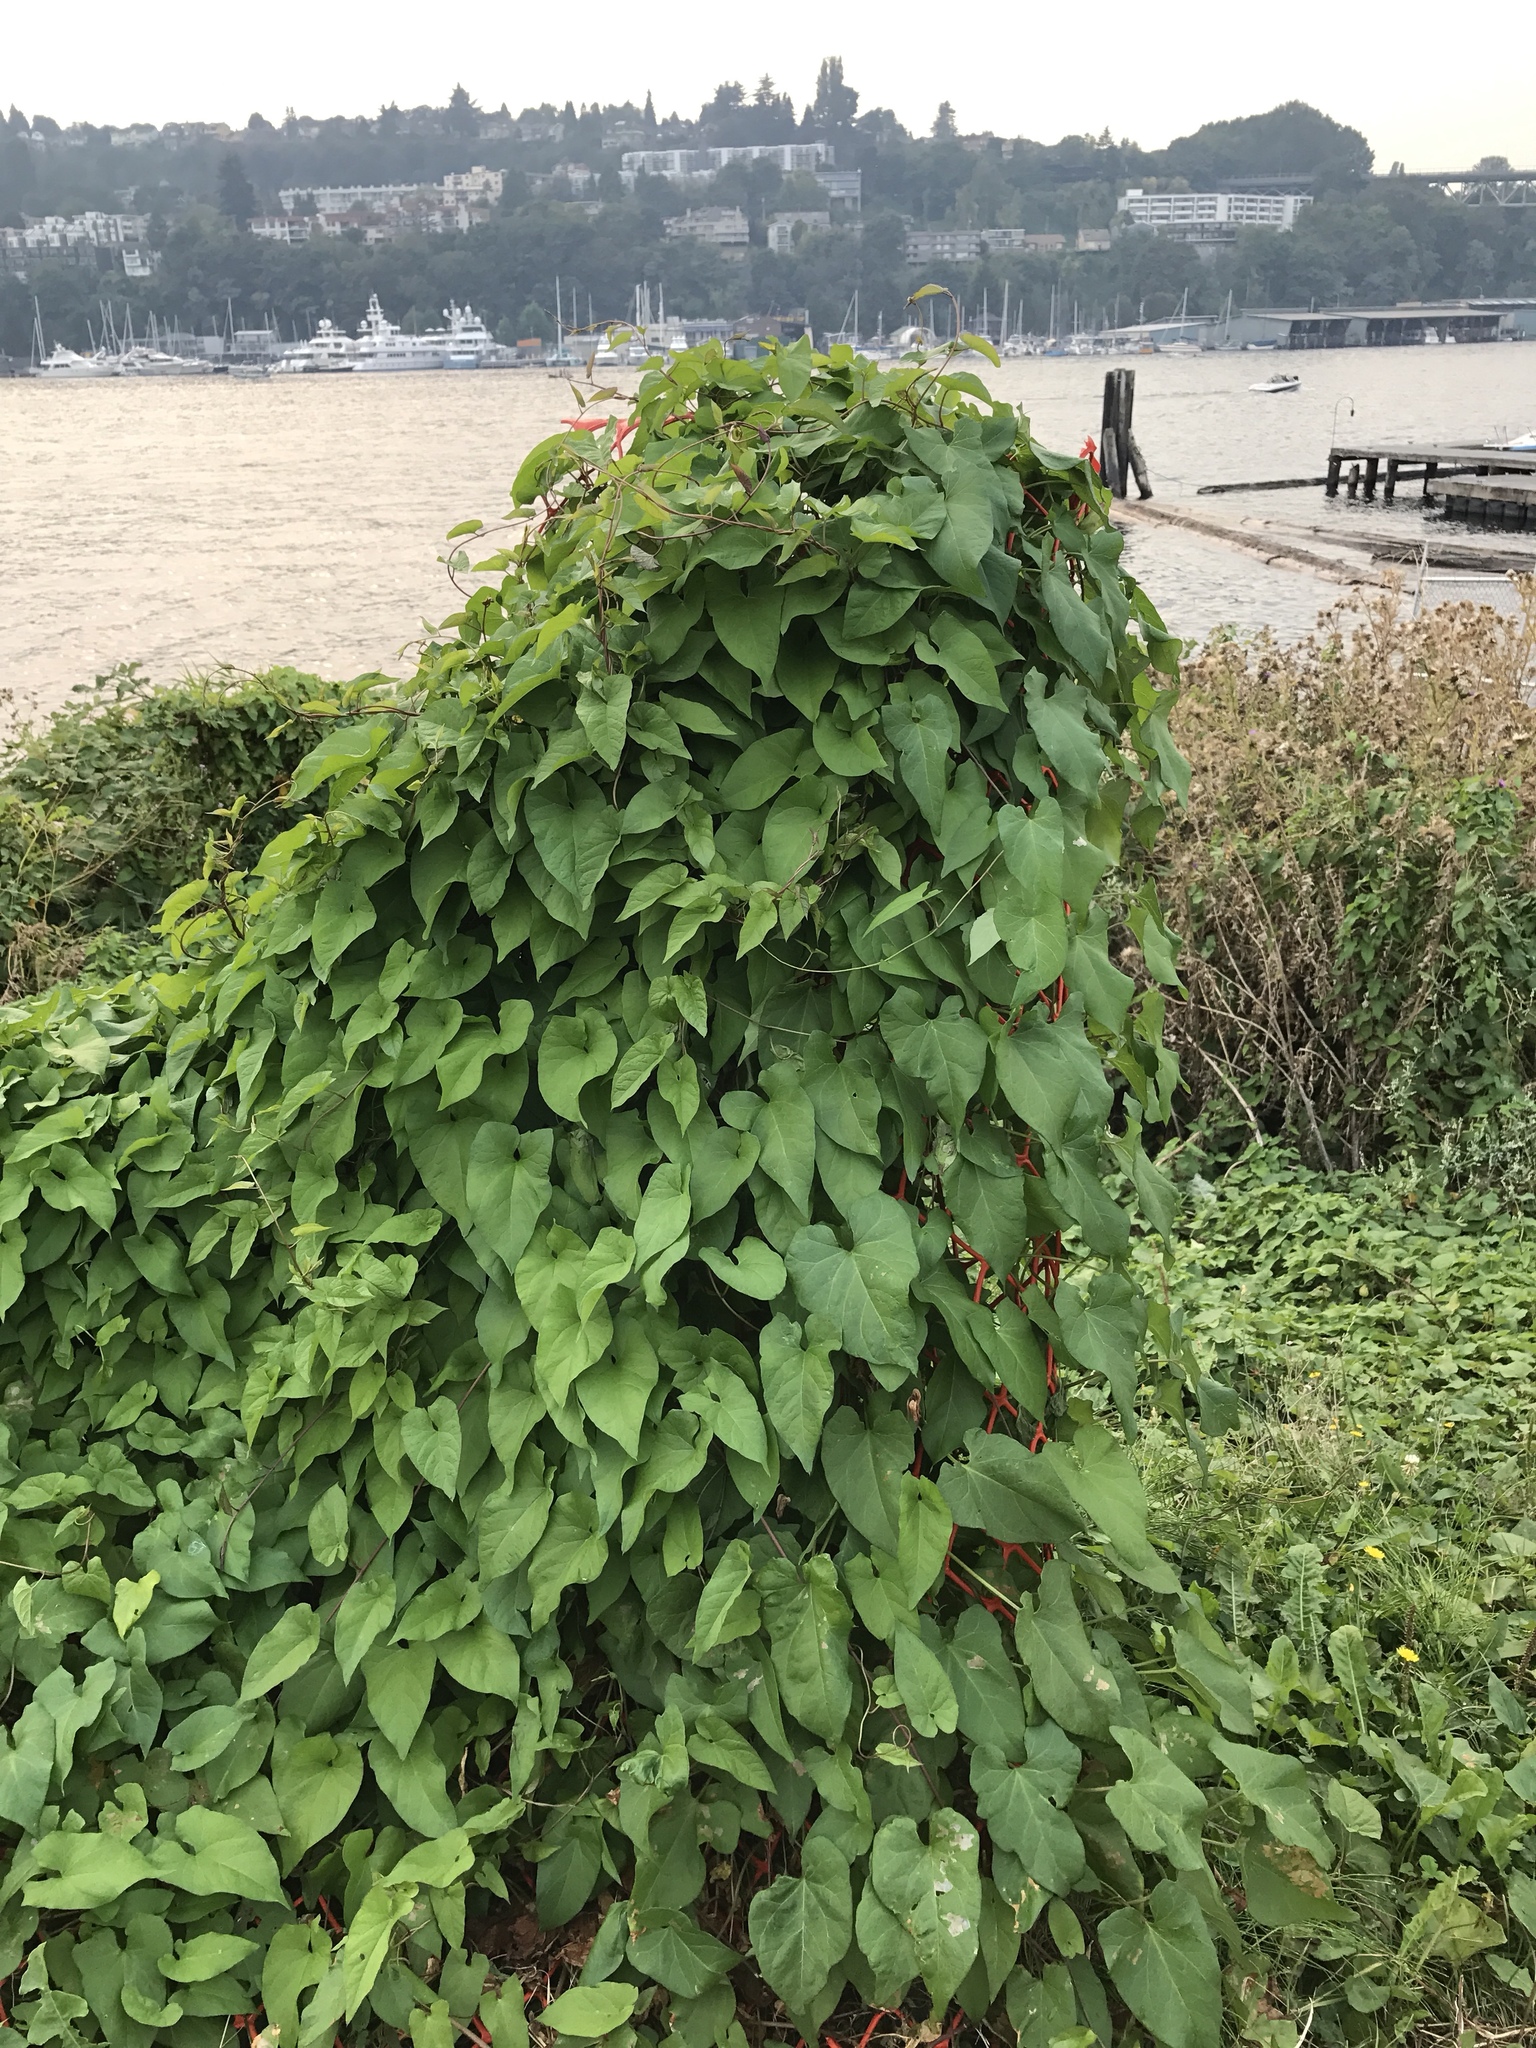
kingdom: Plantae
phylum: Tracheophyta
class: Magnoliopsida
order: Solanales
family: Convolvulaceae
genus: Calystegia
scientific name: Calystegia silvatica
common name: Large bindweed
